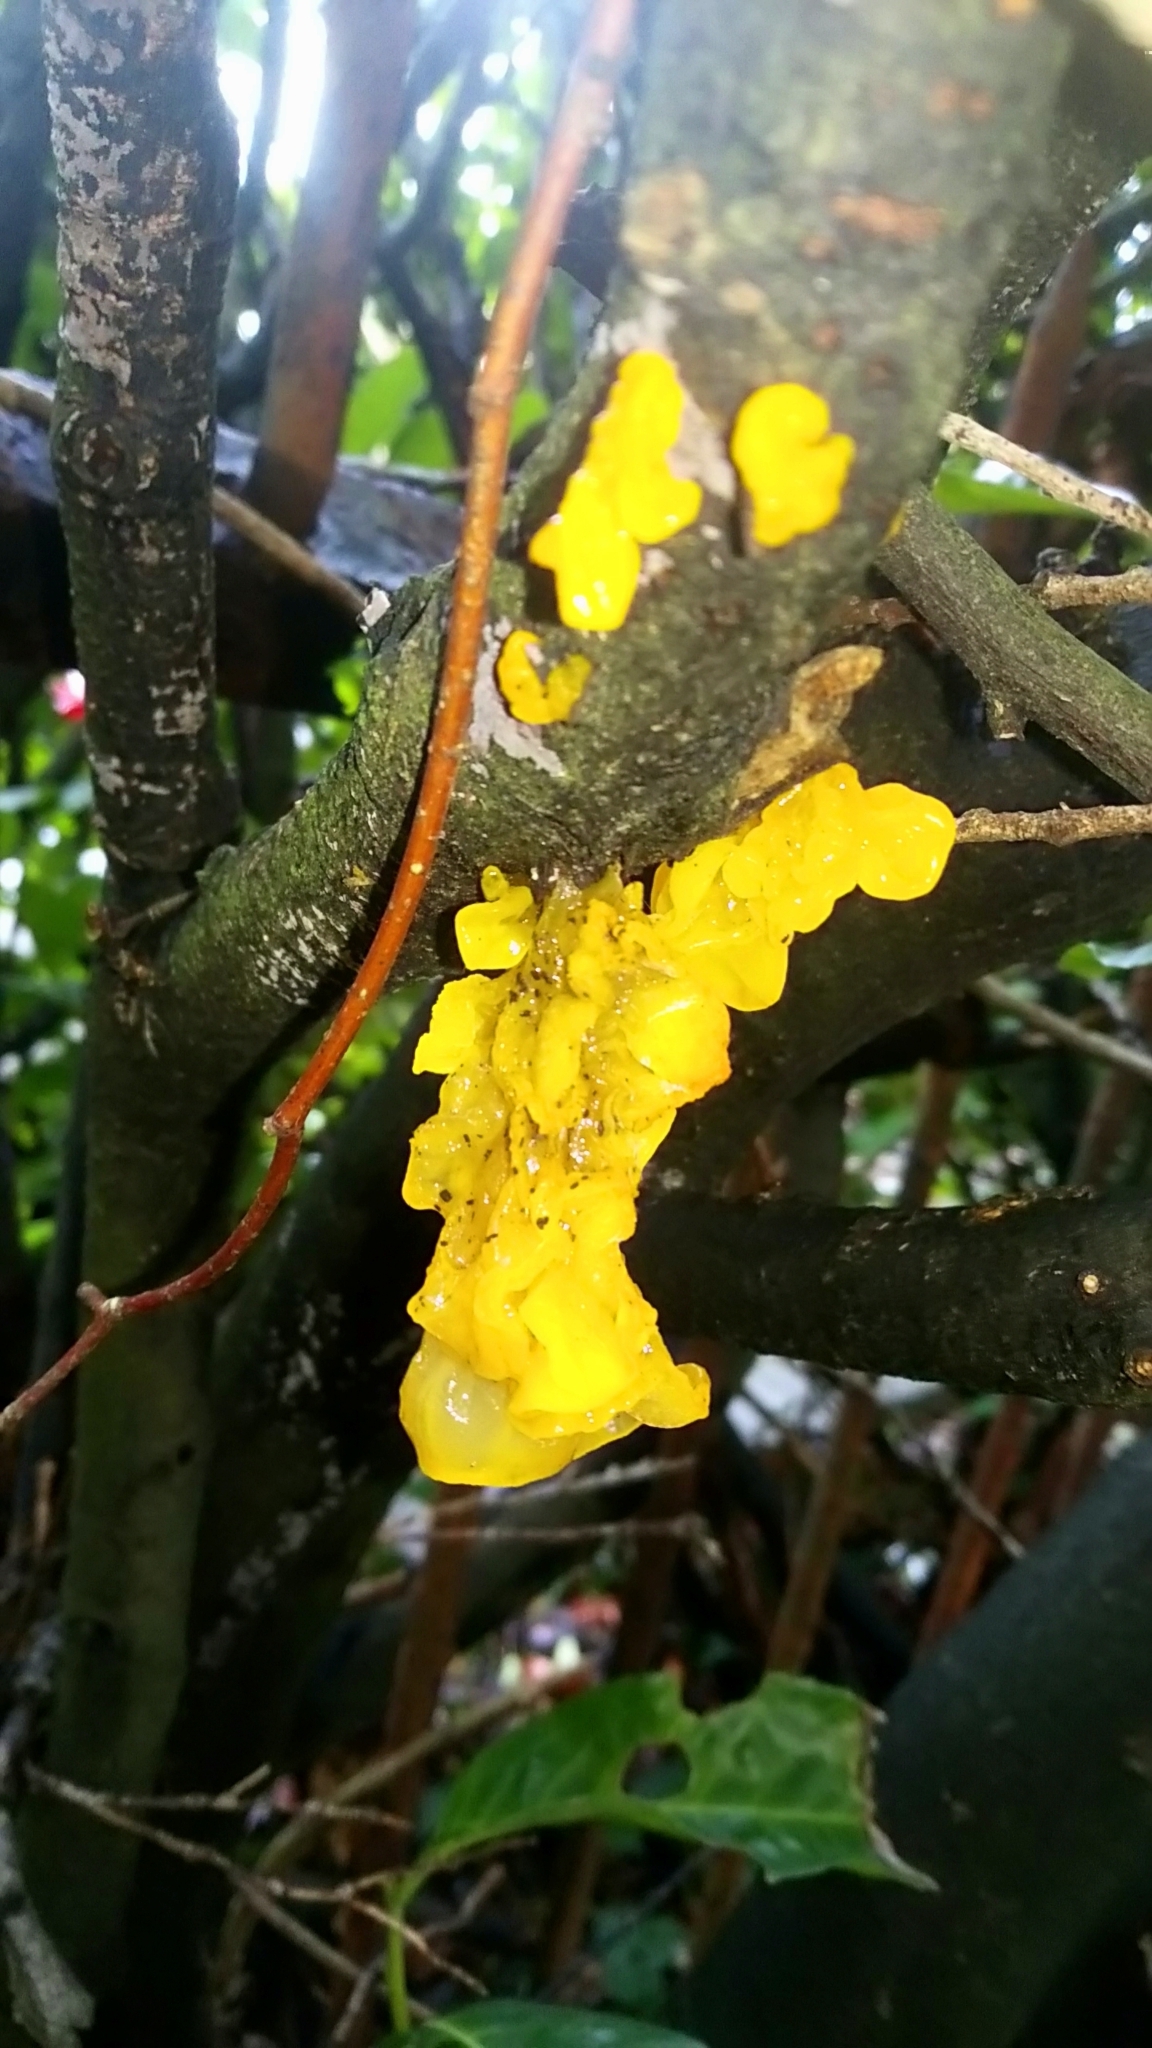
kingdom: Fungi
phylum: Basidiomycota
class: Tremellomycetes
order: Tremellales
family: Tremellaceae
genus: Tremella
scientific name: Tremella mesenterica
